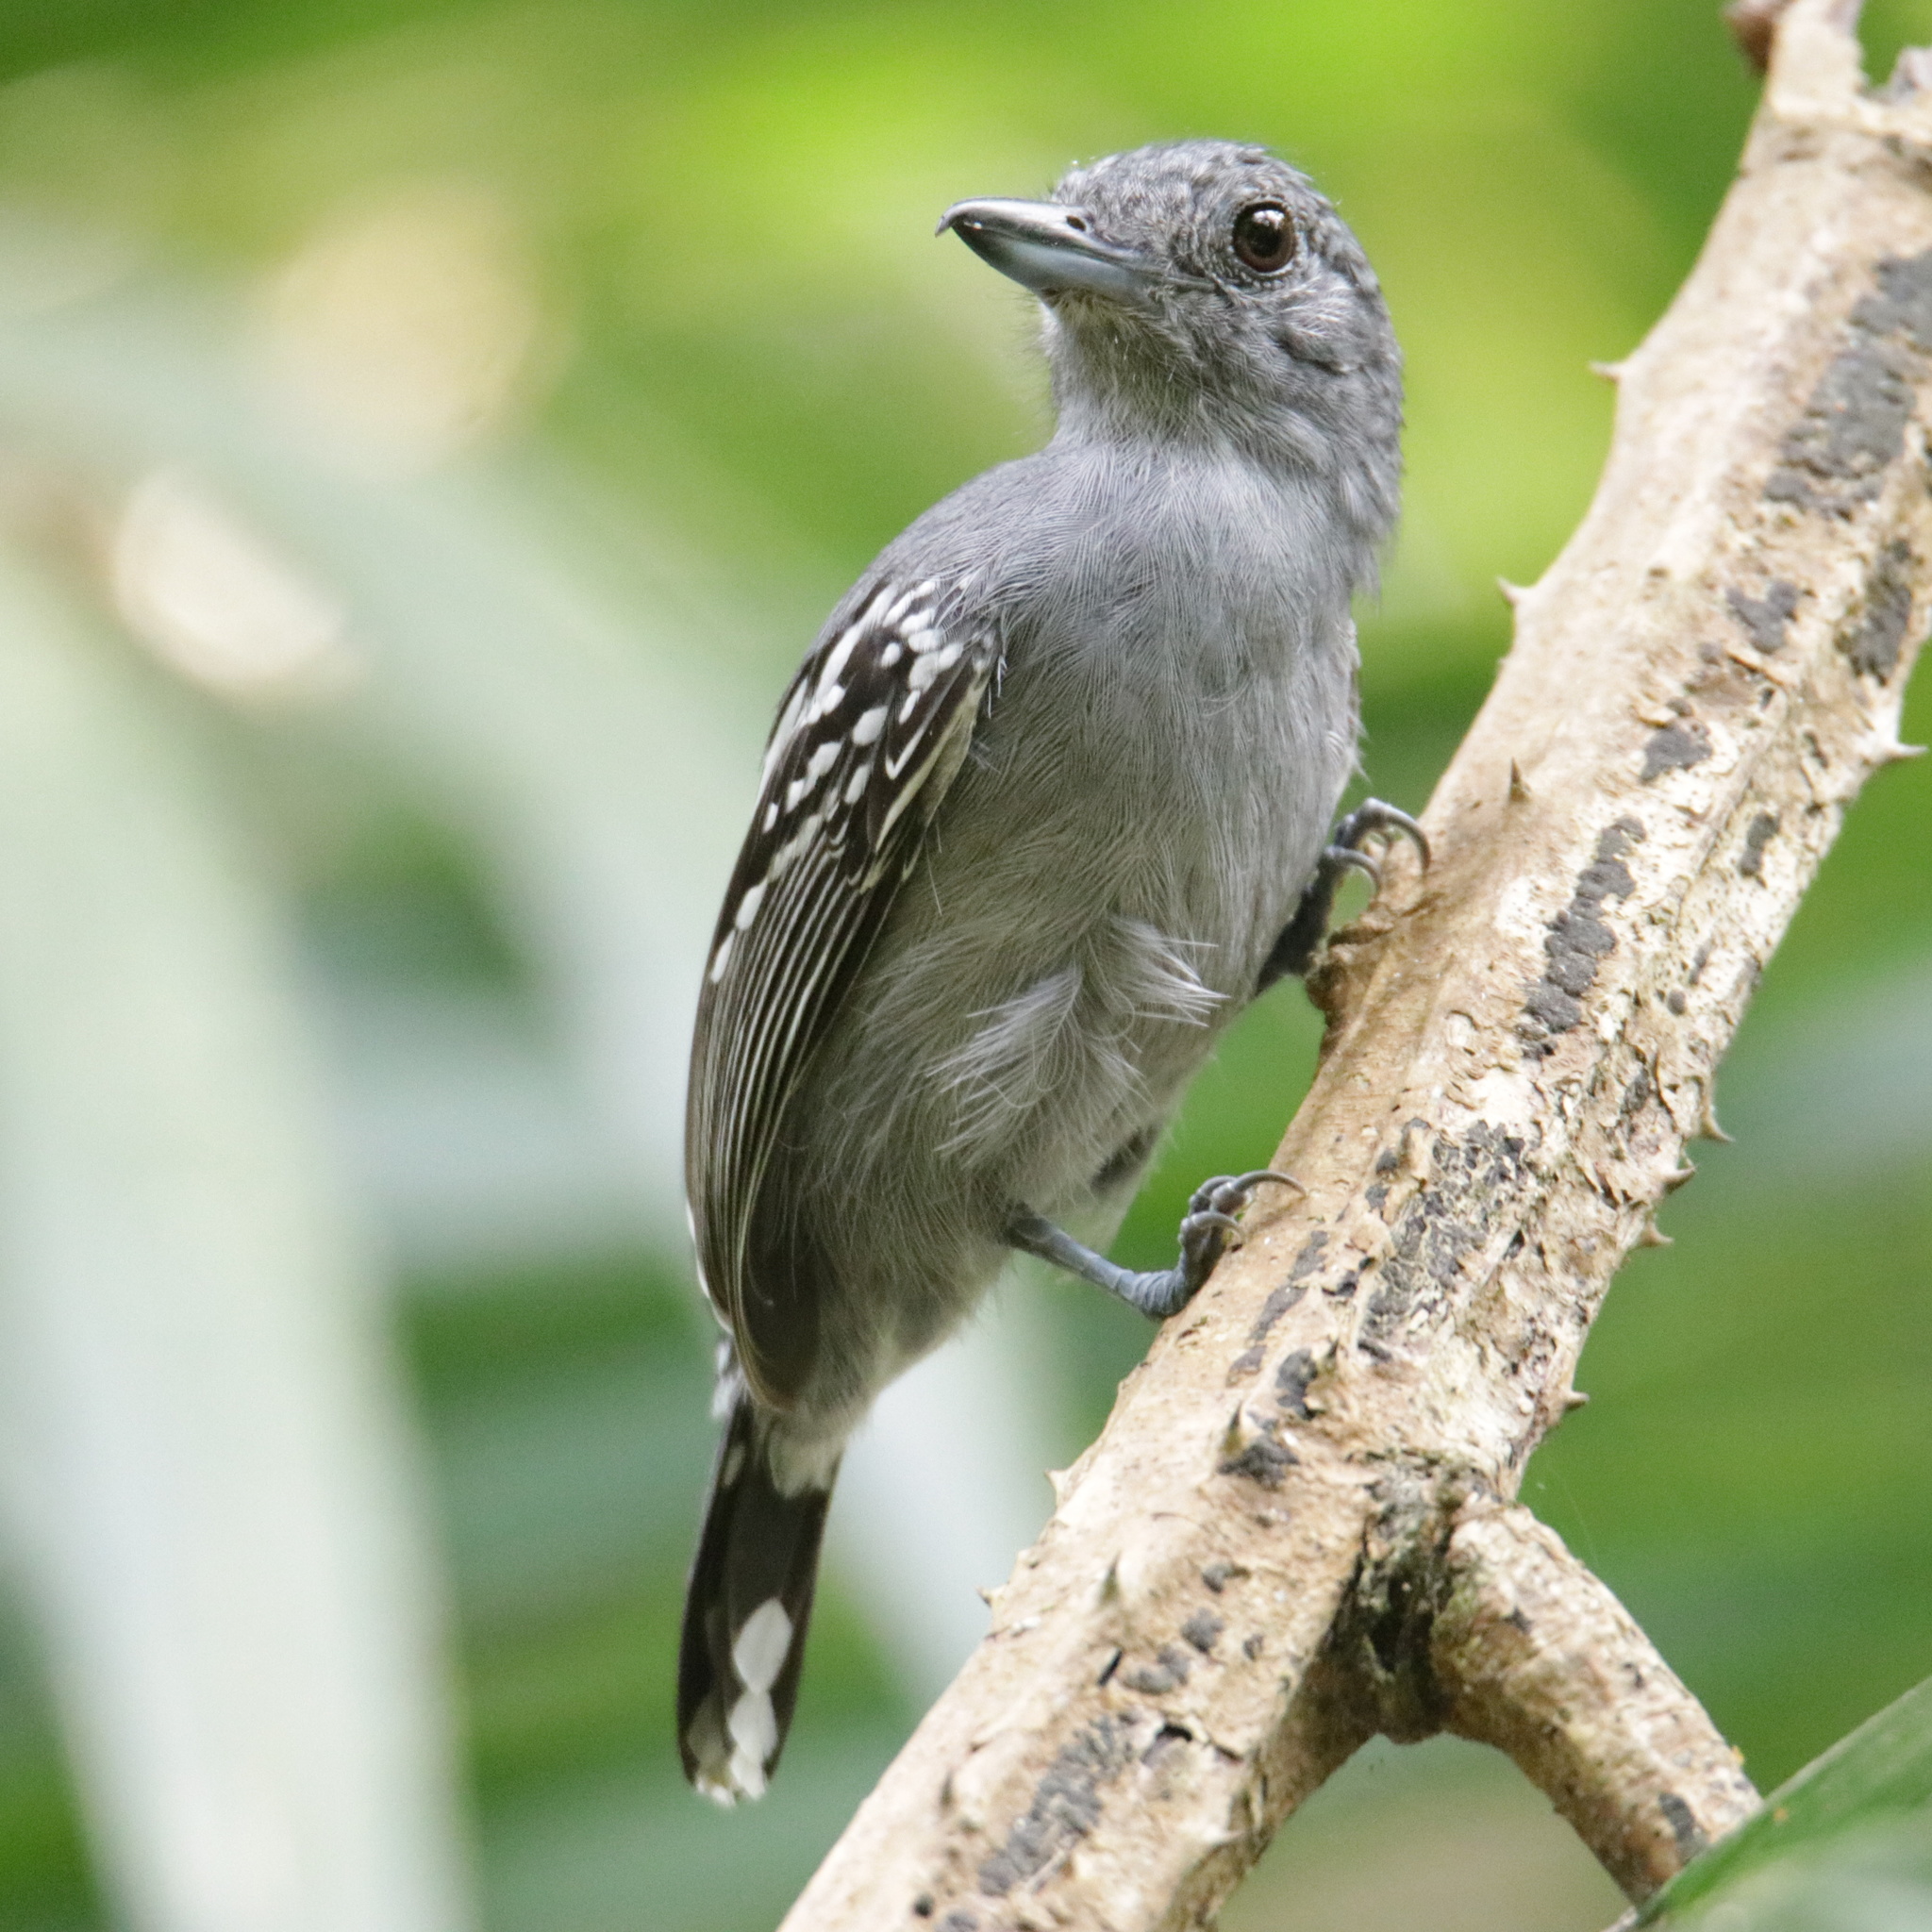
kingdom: Animalia
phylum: Chordata
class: Aves
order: Passeriformes
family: Thamnophilidae
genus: Thamnophilus
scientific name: Thamnophilus atrinucha
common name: Black-crowned antshrike
